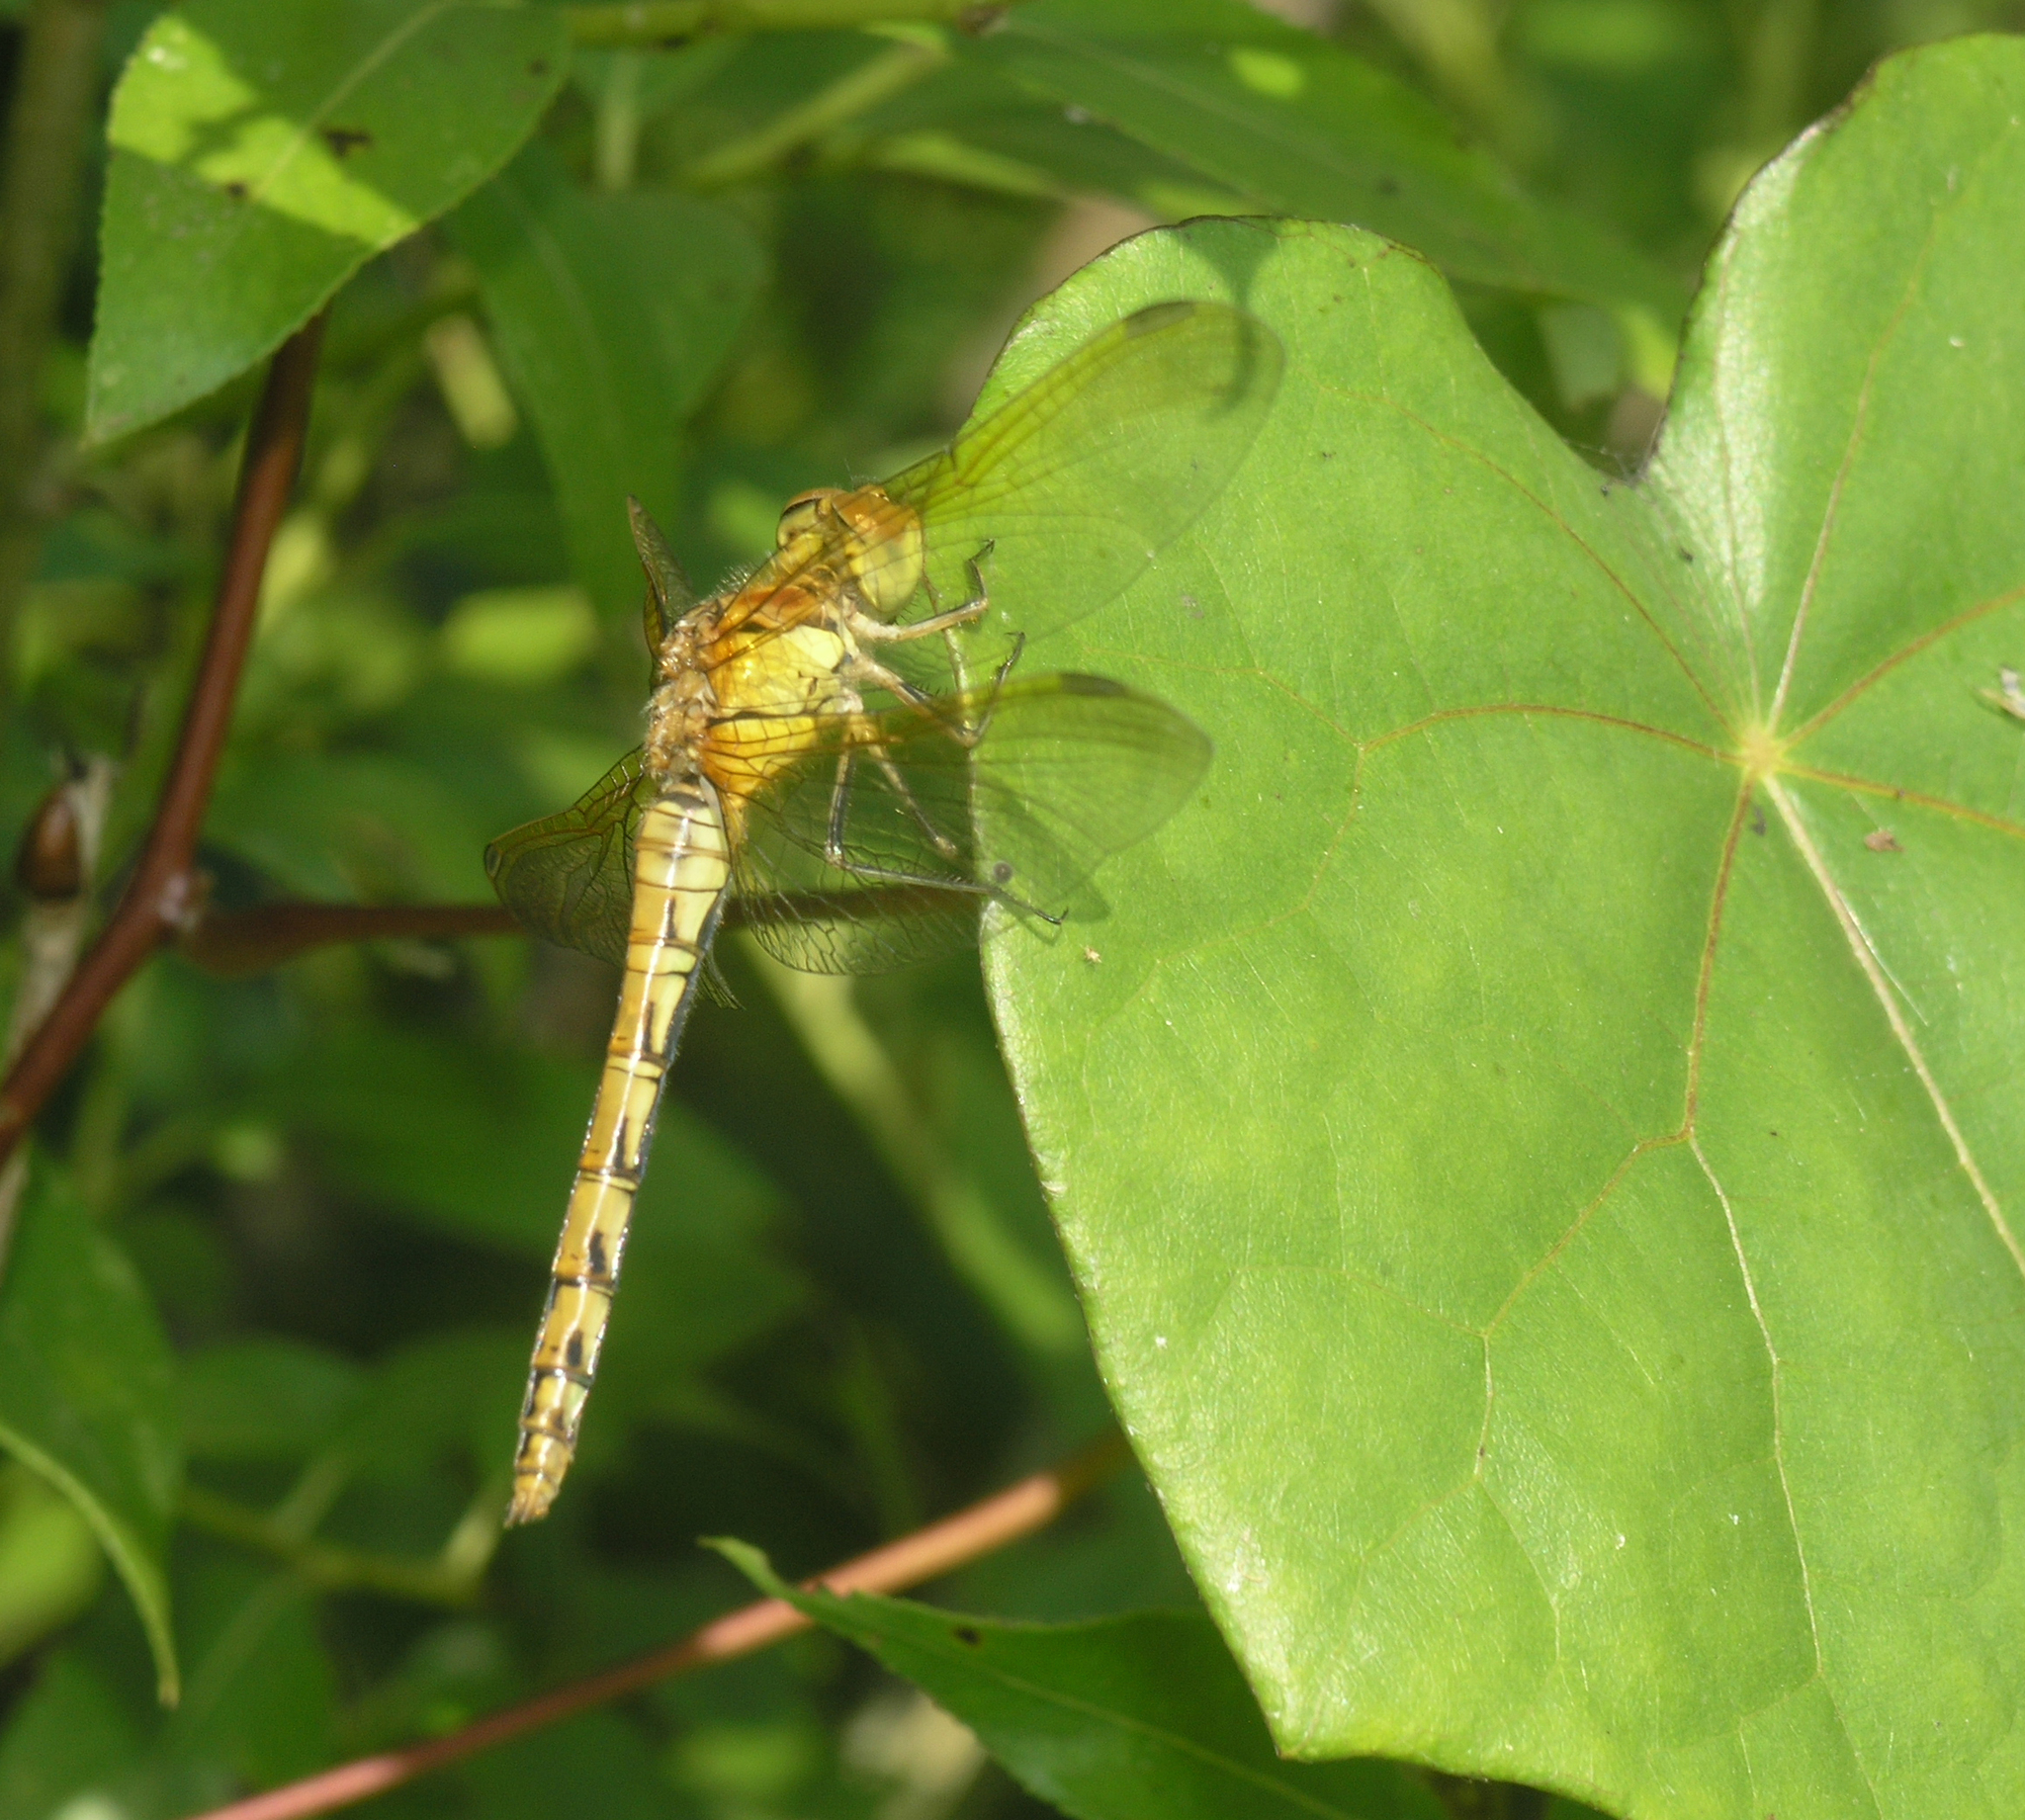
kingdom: Animalia
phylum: Arthropoda
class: Insecta
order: Odonata
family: Libellulidae
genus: Sympetrum
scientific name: Sympetrum striolatum
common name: Common darter
